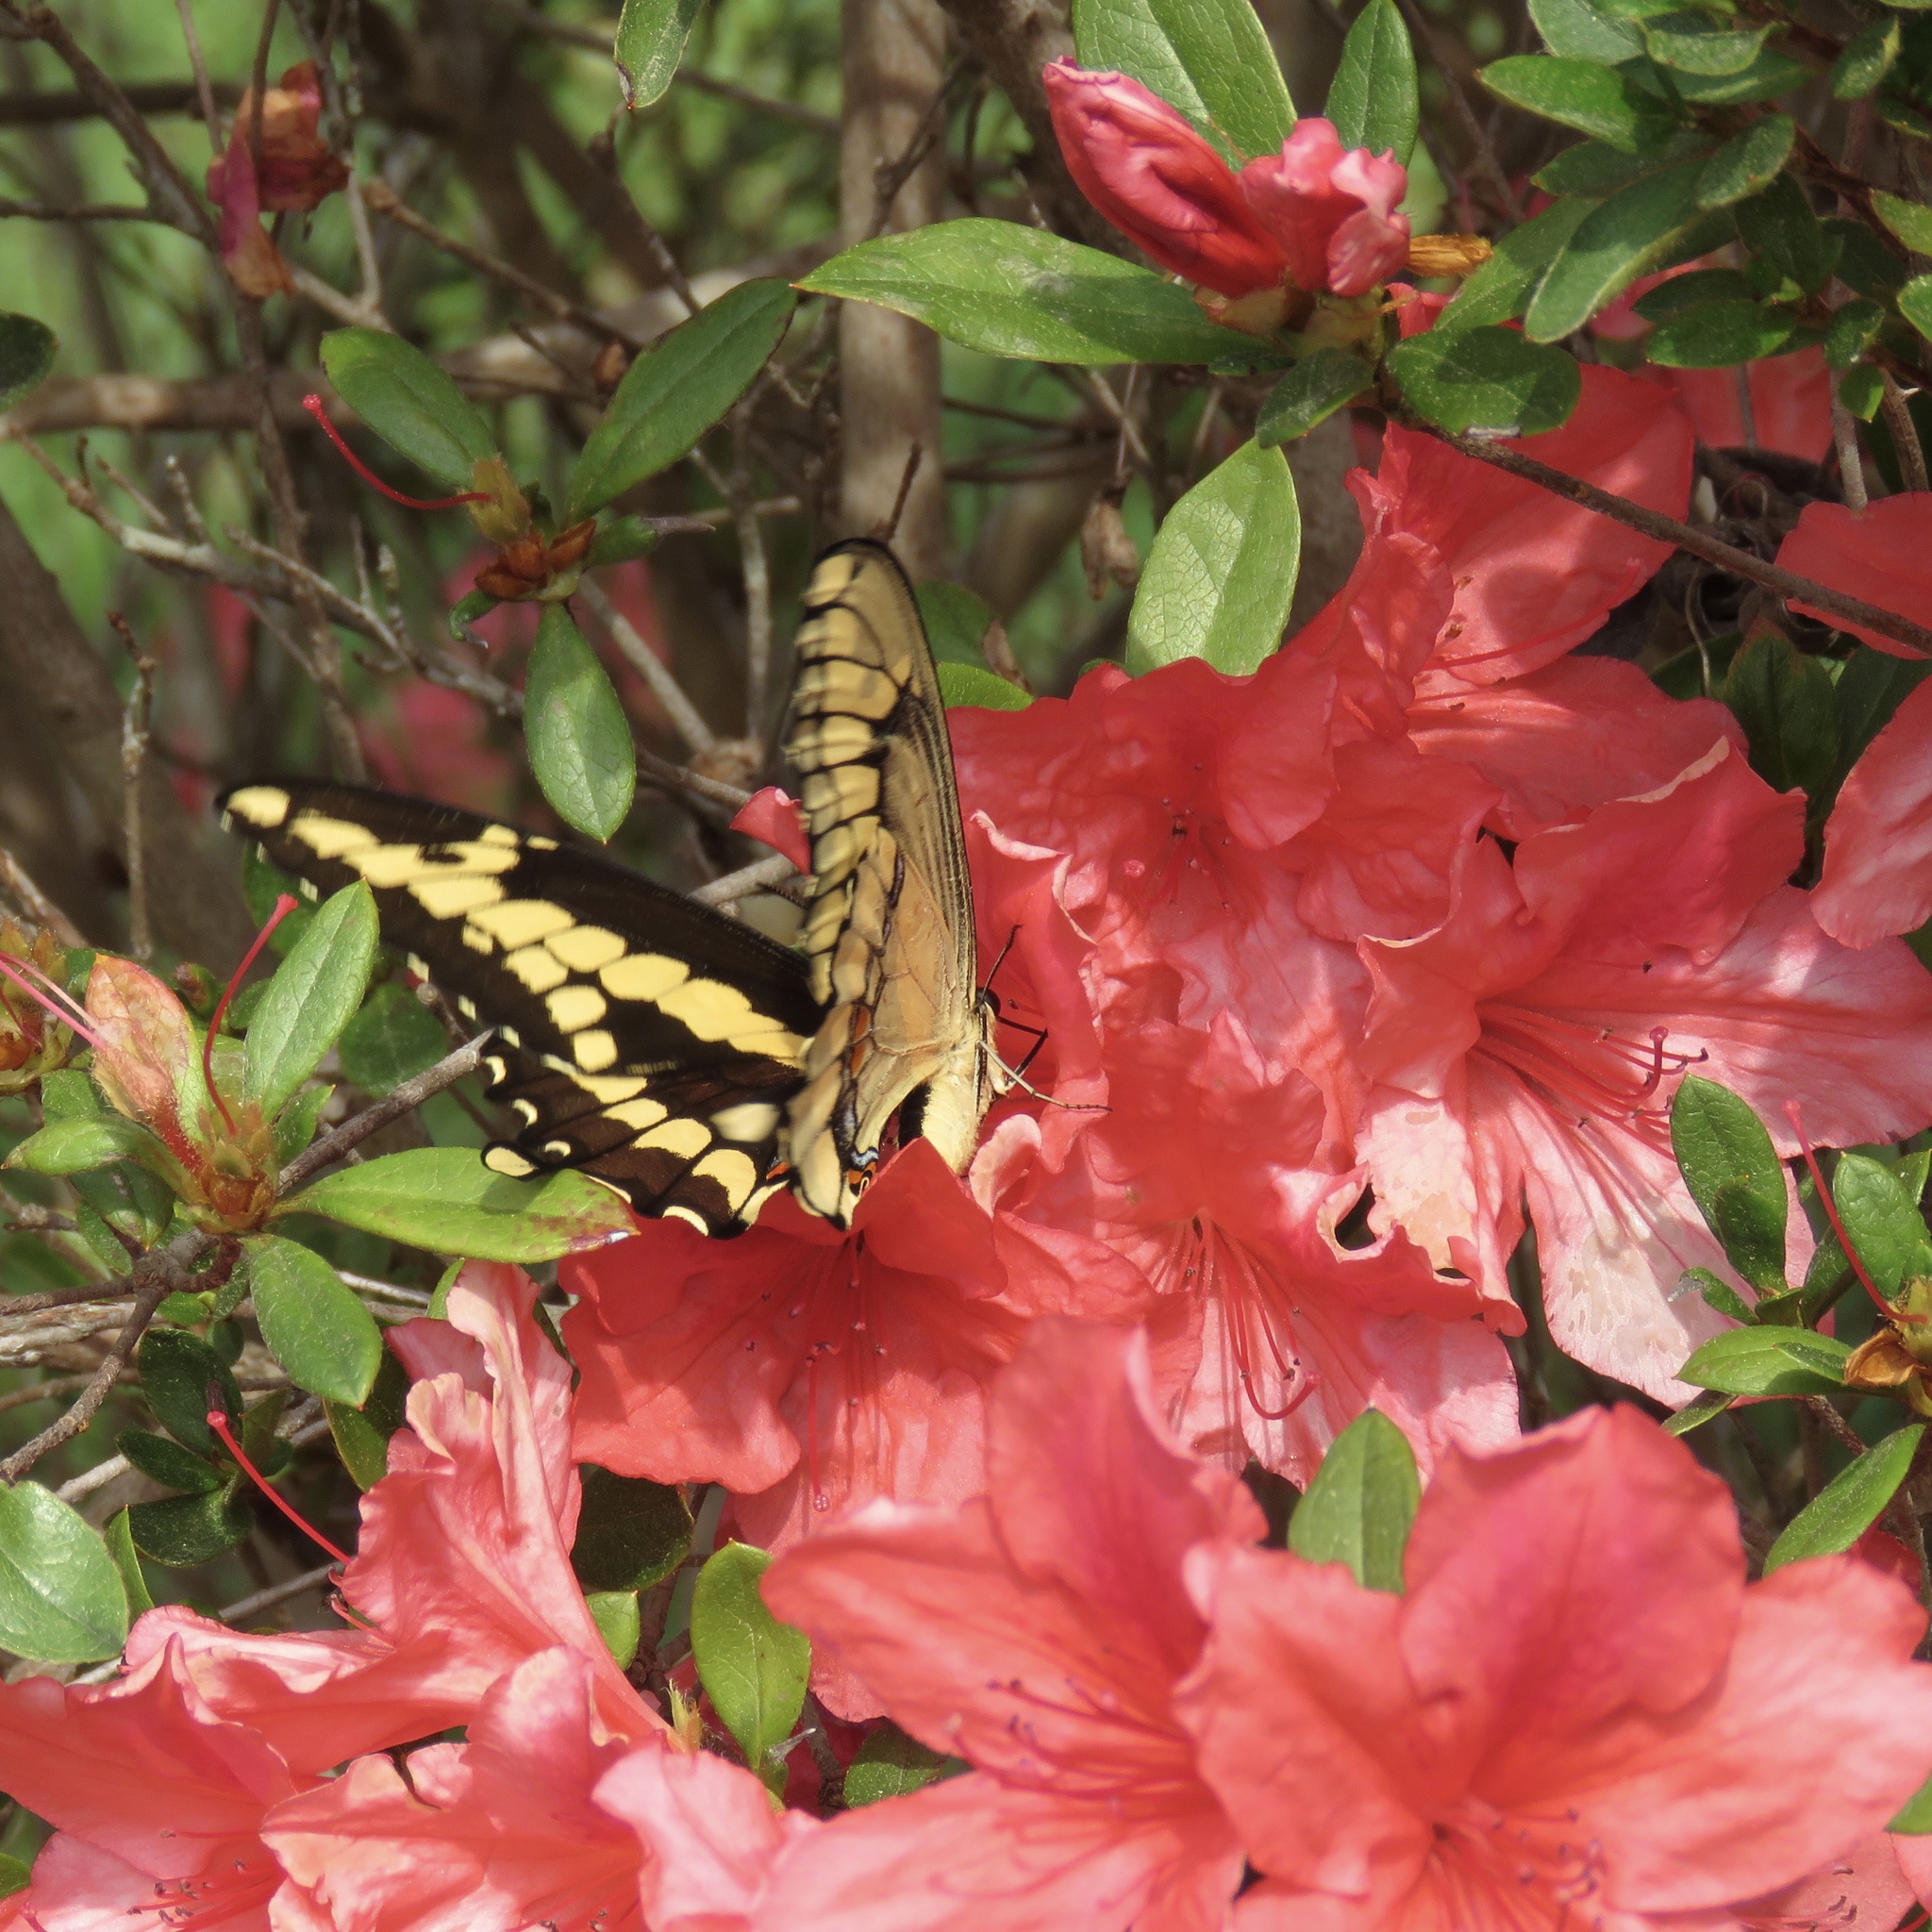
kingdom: Animalia
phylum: Arthropoda
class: Insecta
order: Lepidoptera
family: Papilionidae
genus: Papilio
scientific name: Papilio cresphontes
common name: Giant swallowtail
